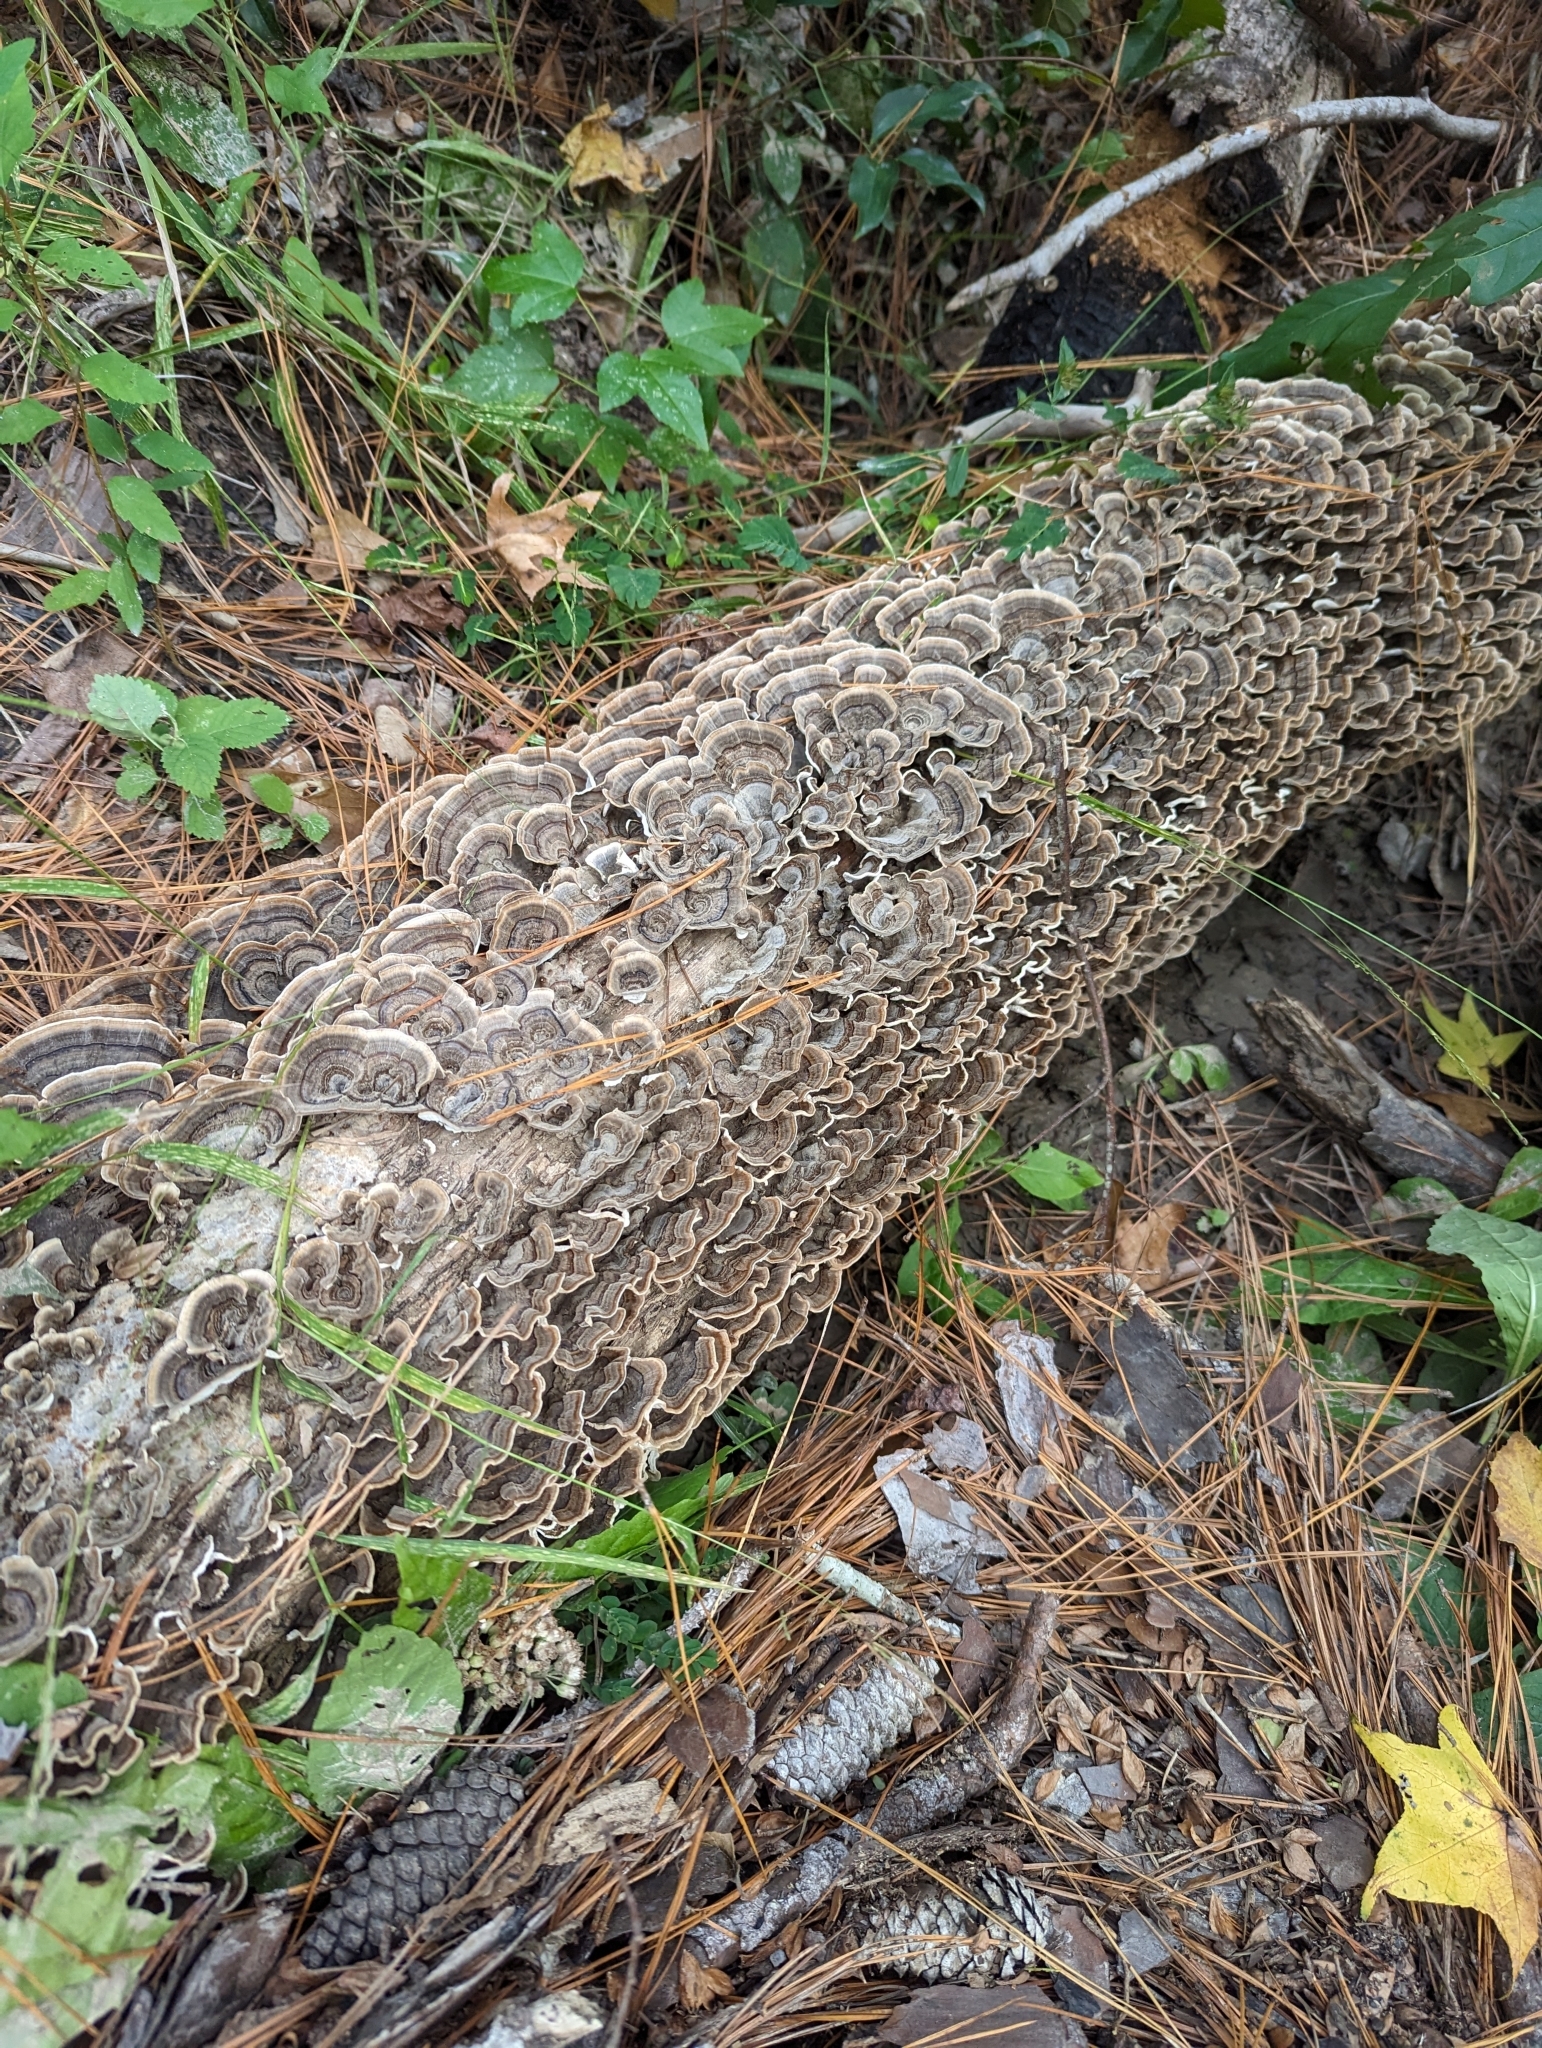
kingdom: Fungi
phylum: Basidiomycota
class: Agaricomycetes
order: Polyporales
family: Polyporaceae
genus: Trametes
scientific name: Trametes versicolor
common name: Turkeytail
